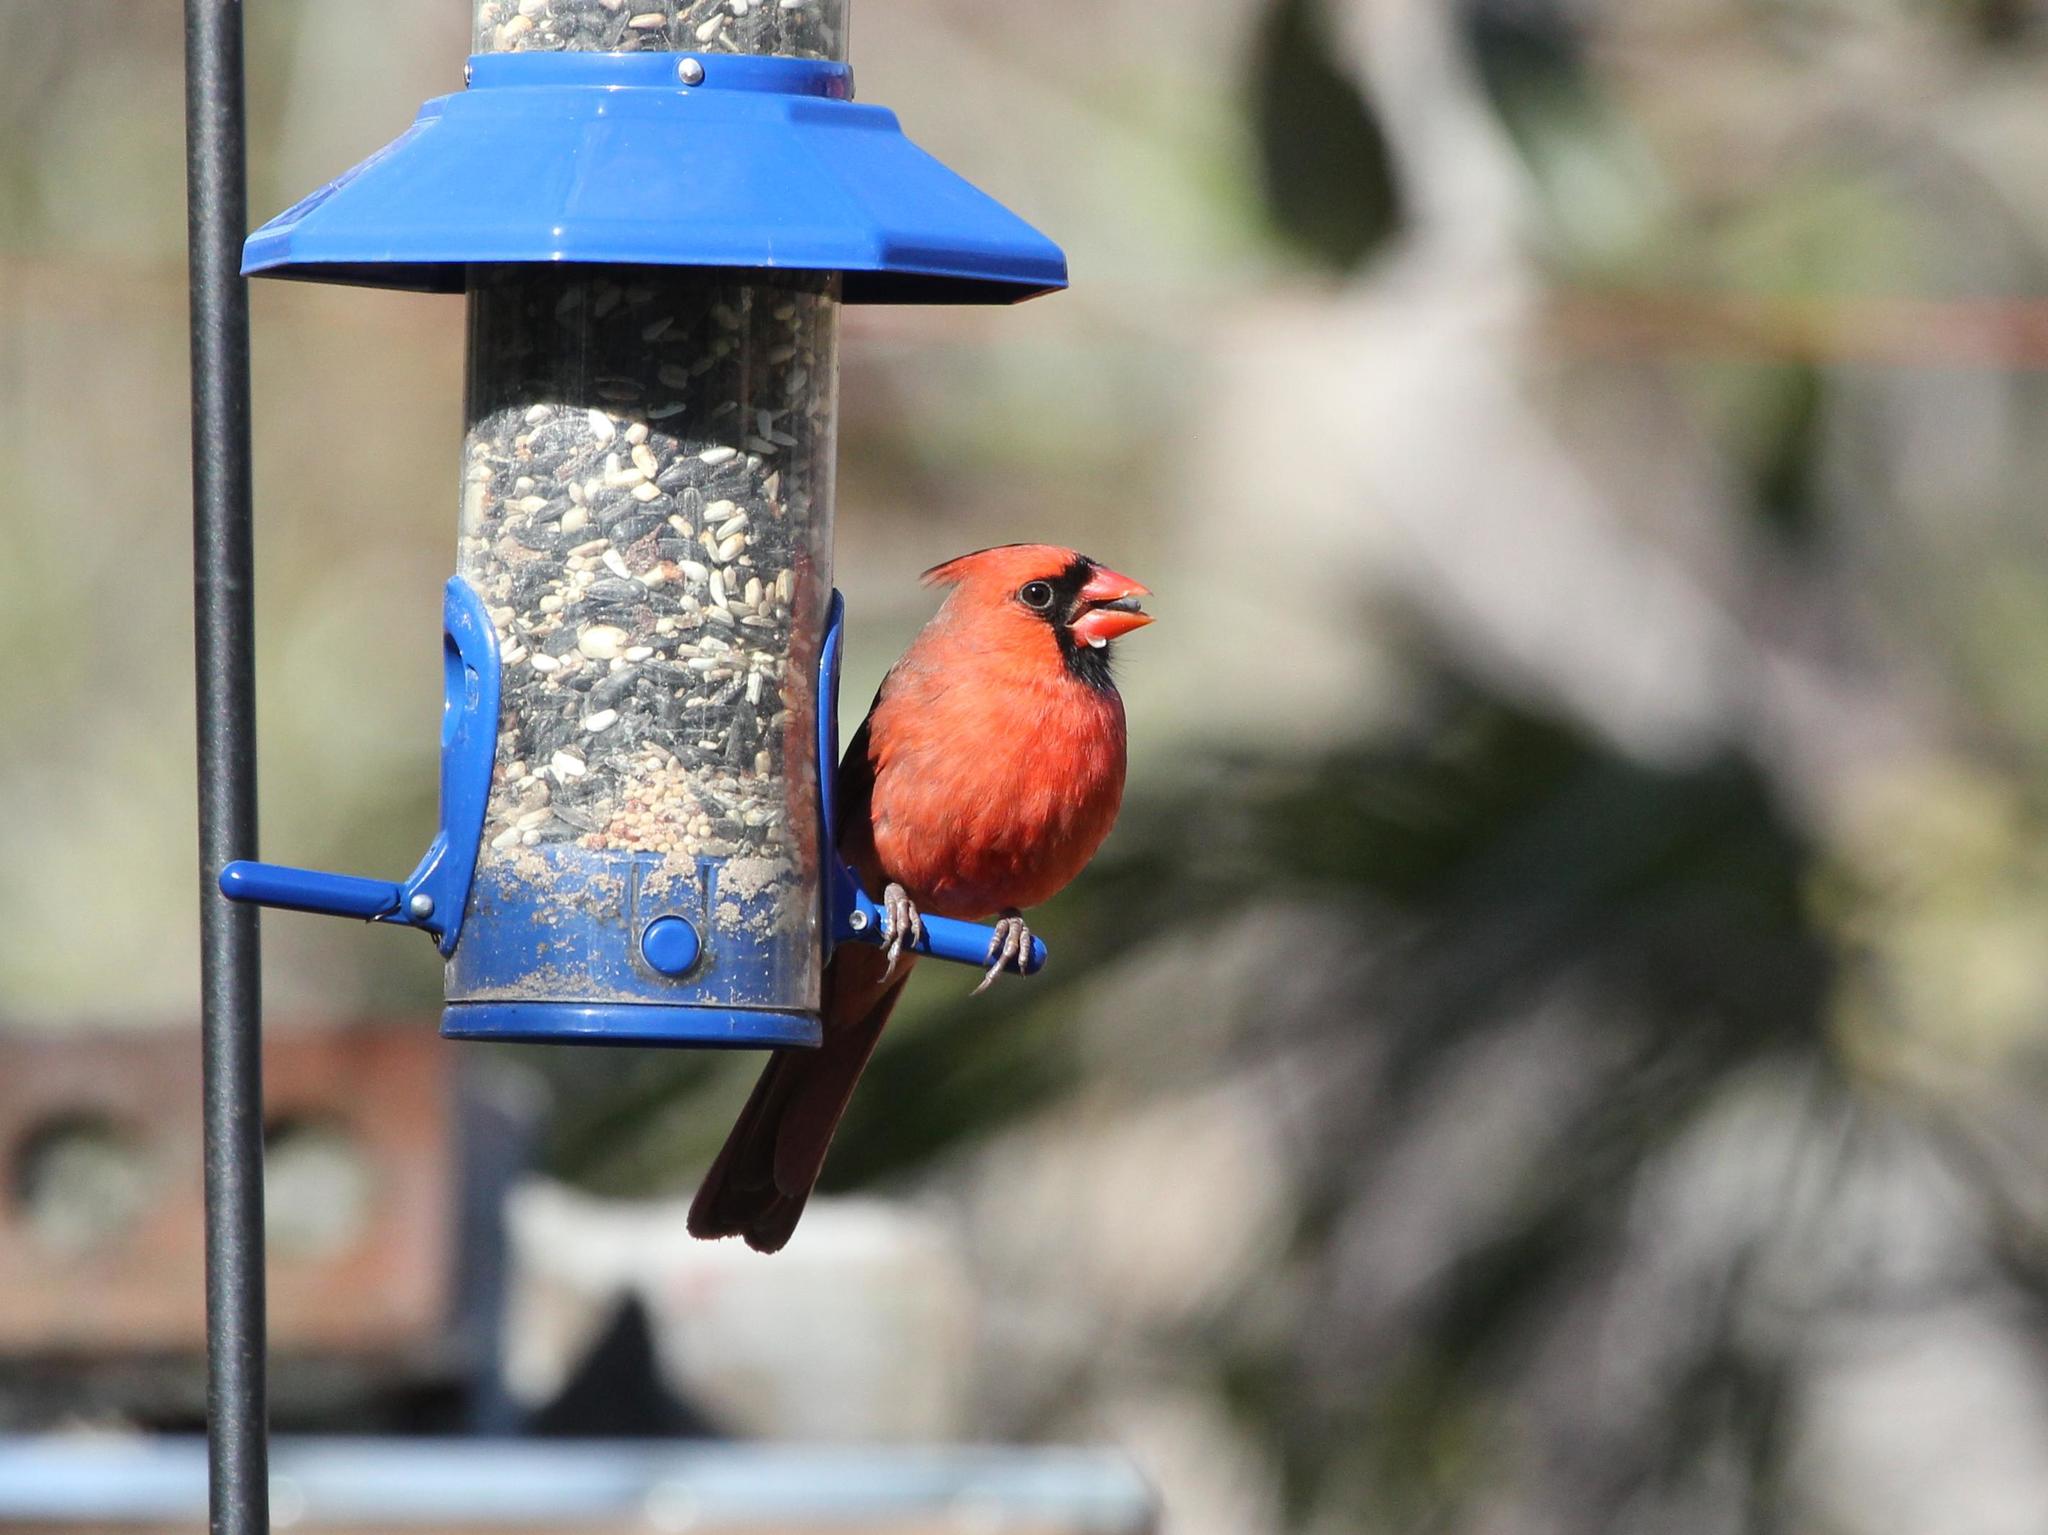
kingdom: Animalia
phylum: Chordata
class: Aves
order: Passeriformes
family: Cardinalidae
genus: Cardinalis
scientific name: Cardinalis cardinalis
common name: Northern cardinal
